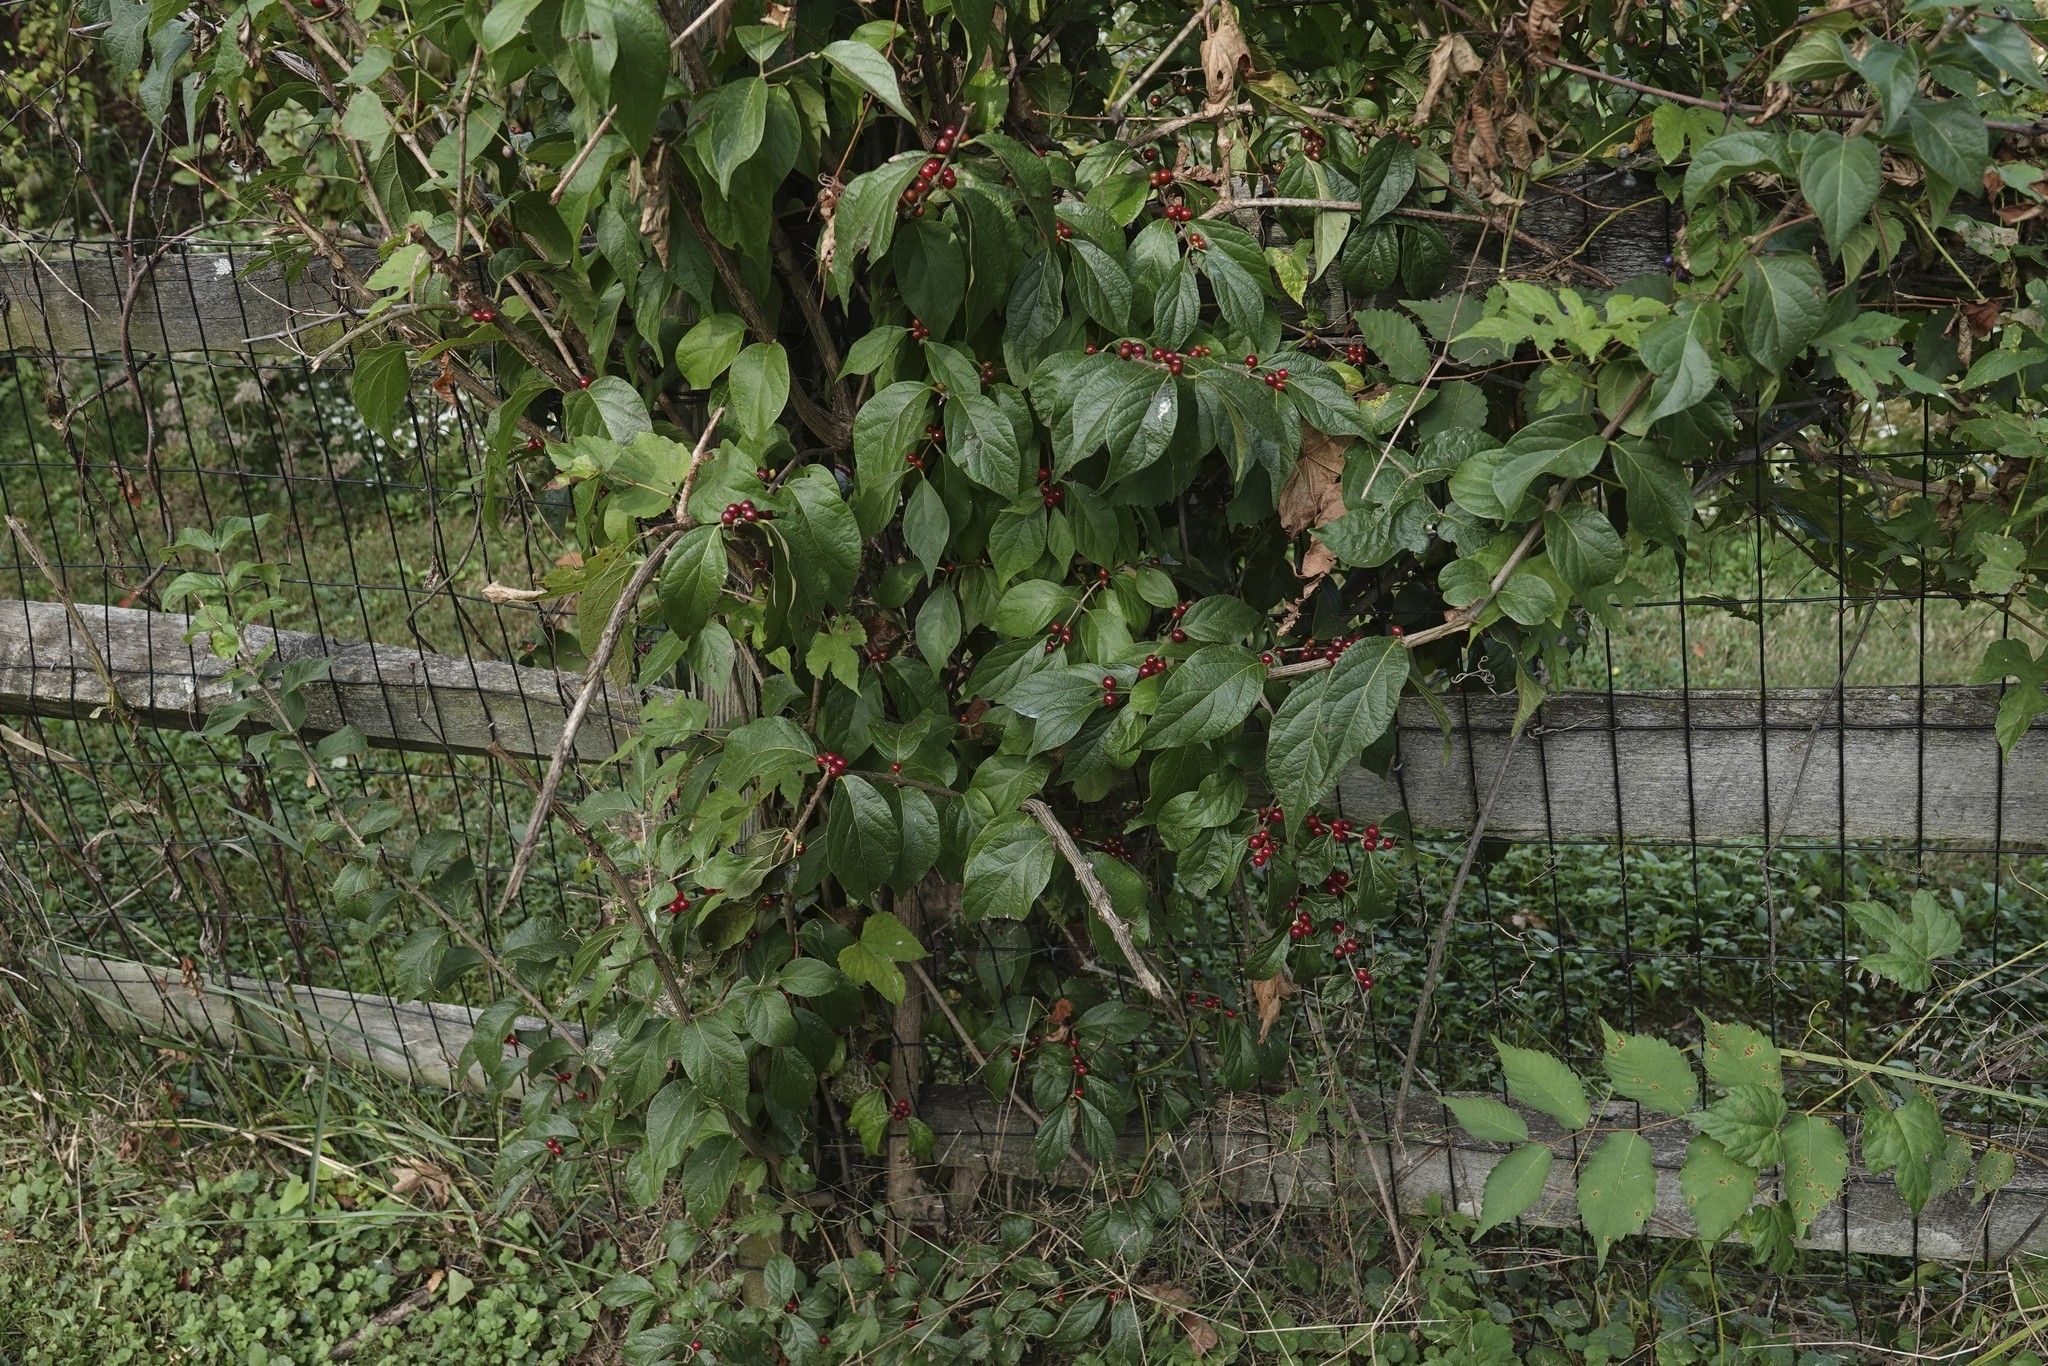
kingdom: Plantae
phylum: Tracheophyta
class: Magnoliopsida
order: Dipsacales
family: Caprifoliaceae
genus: Lonicera
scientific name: Lonicera maackii
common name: Amur honeysuckle
